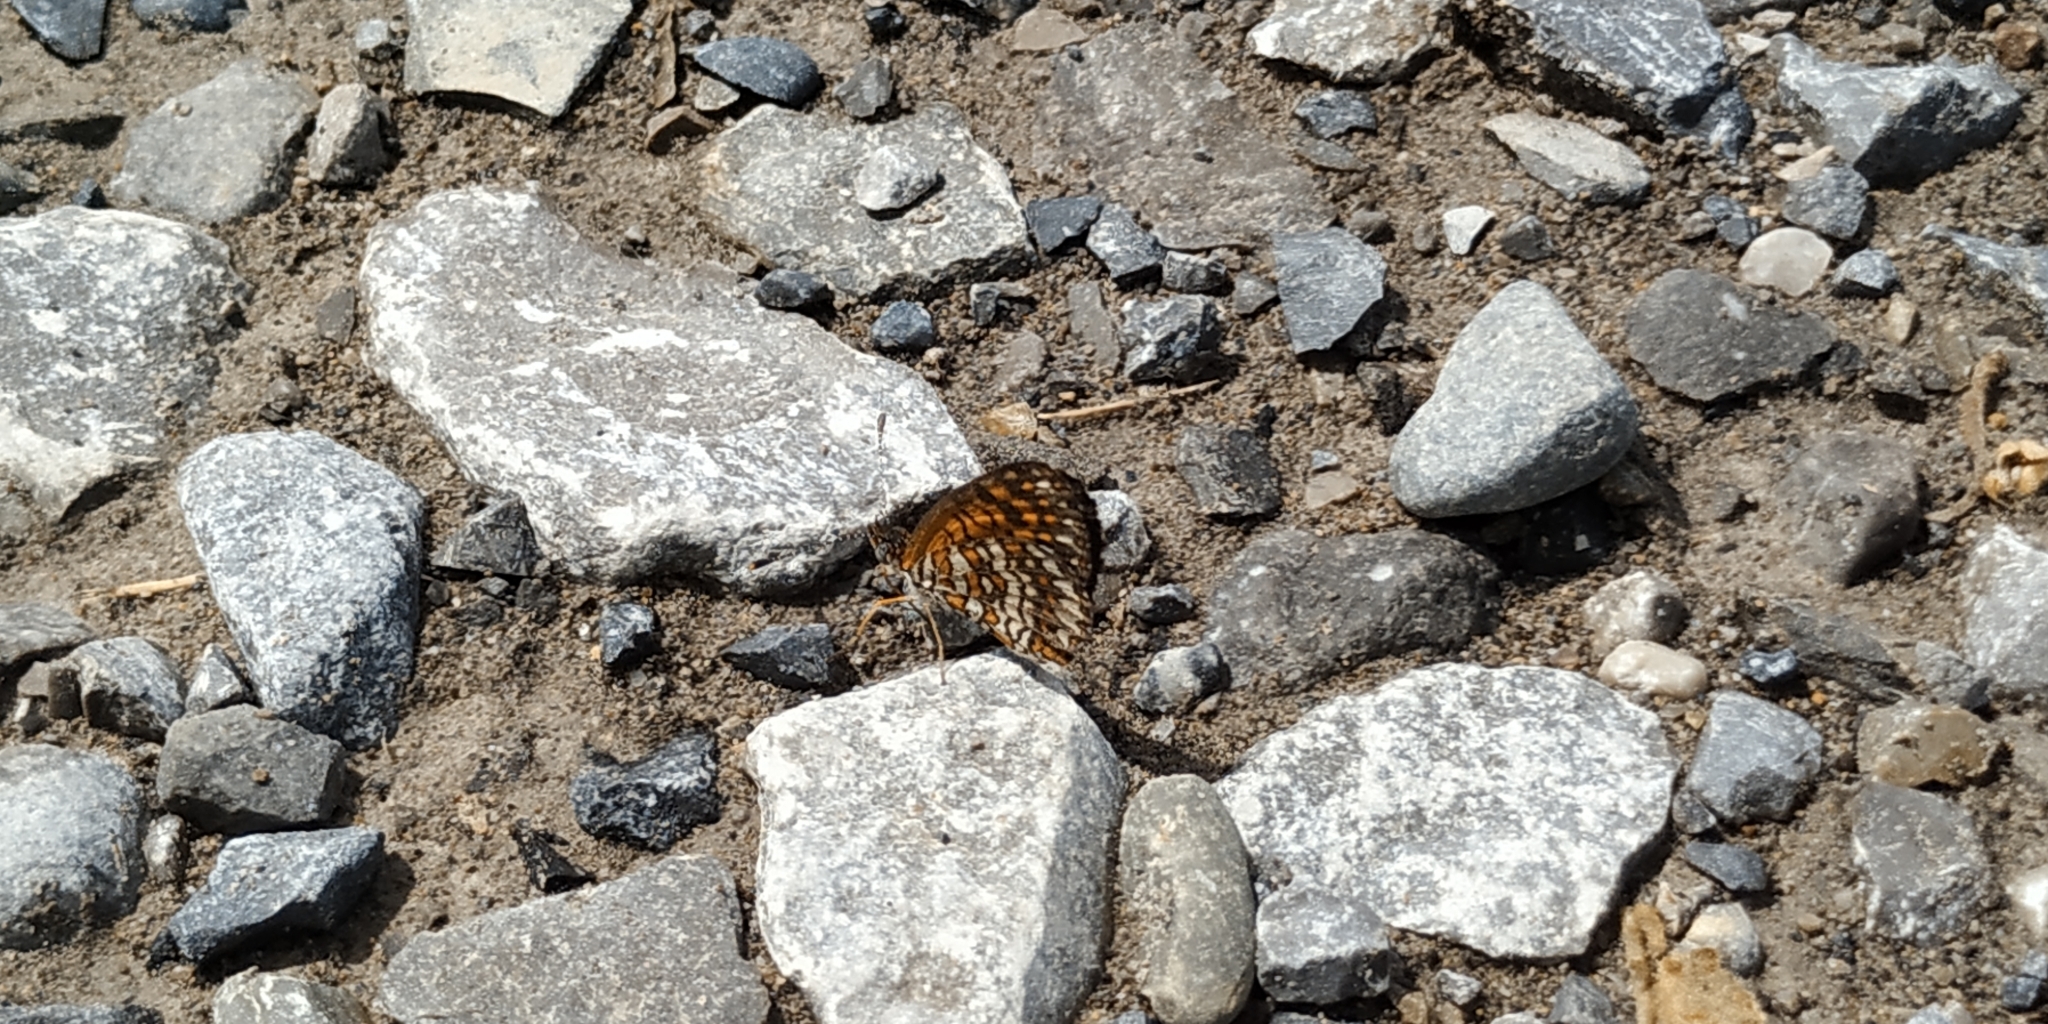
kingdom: Animalia
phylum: Arthropoda
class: Insecta
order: Lepidoptera
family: Nymphalidae
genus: Texola
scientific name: Texola elada
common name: Elada checkerspot
